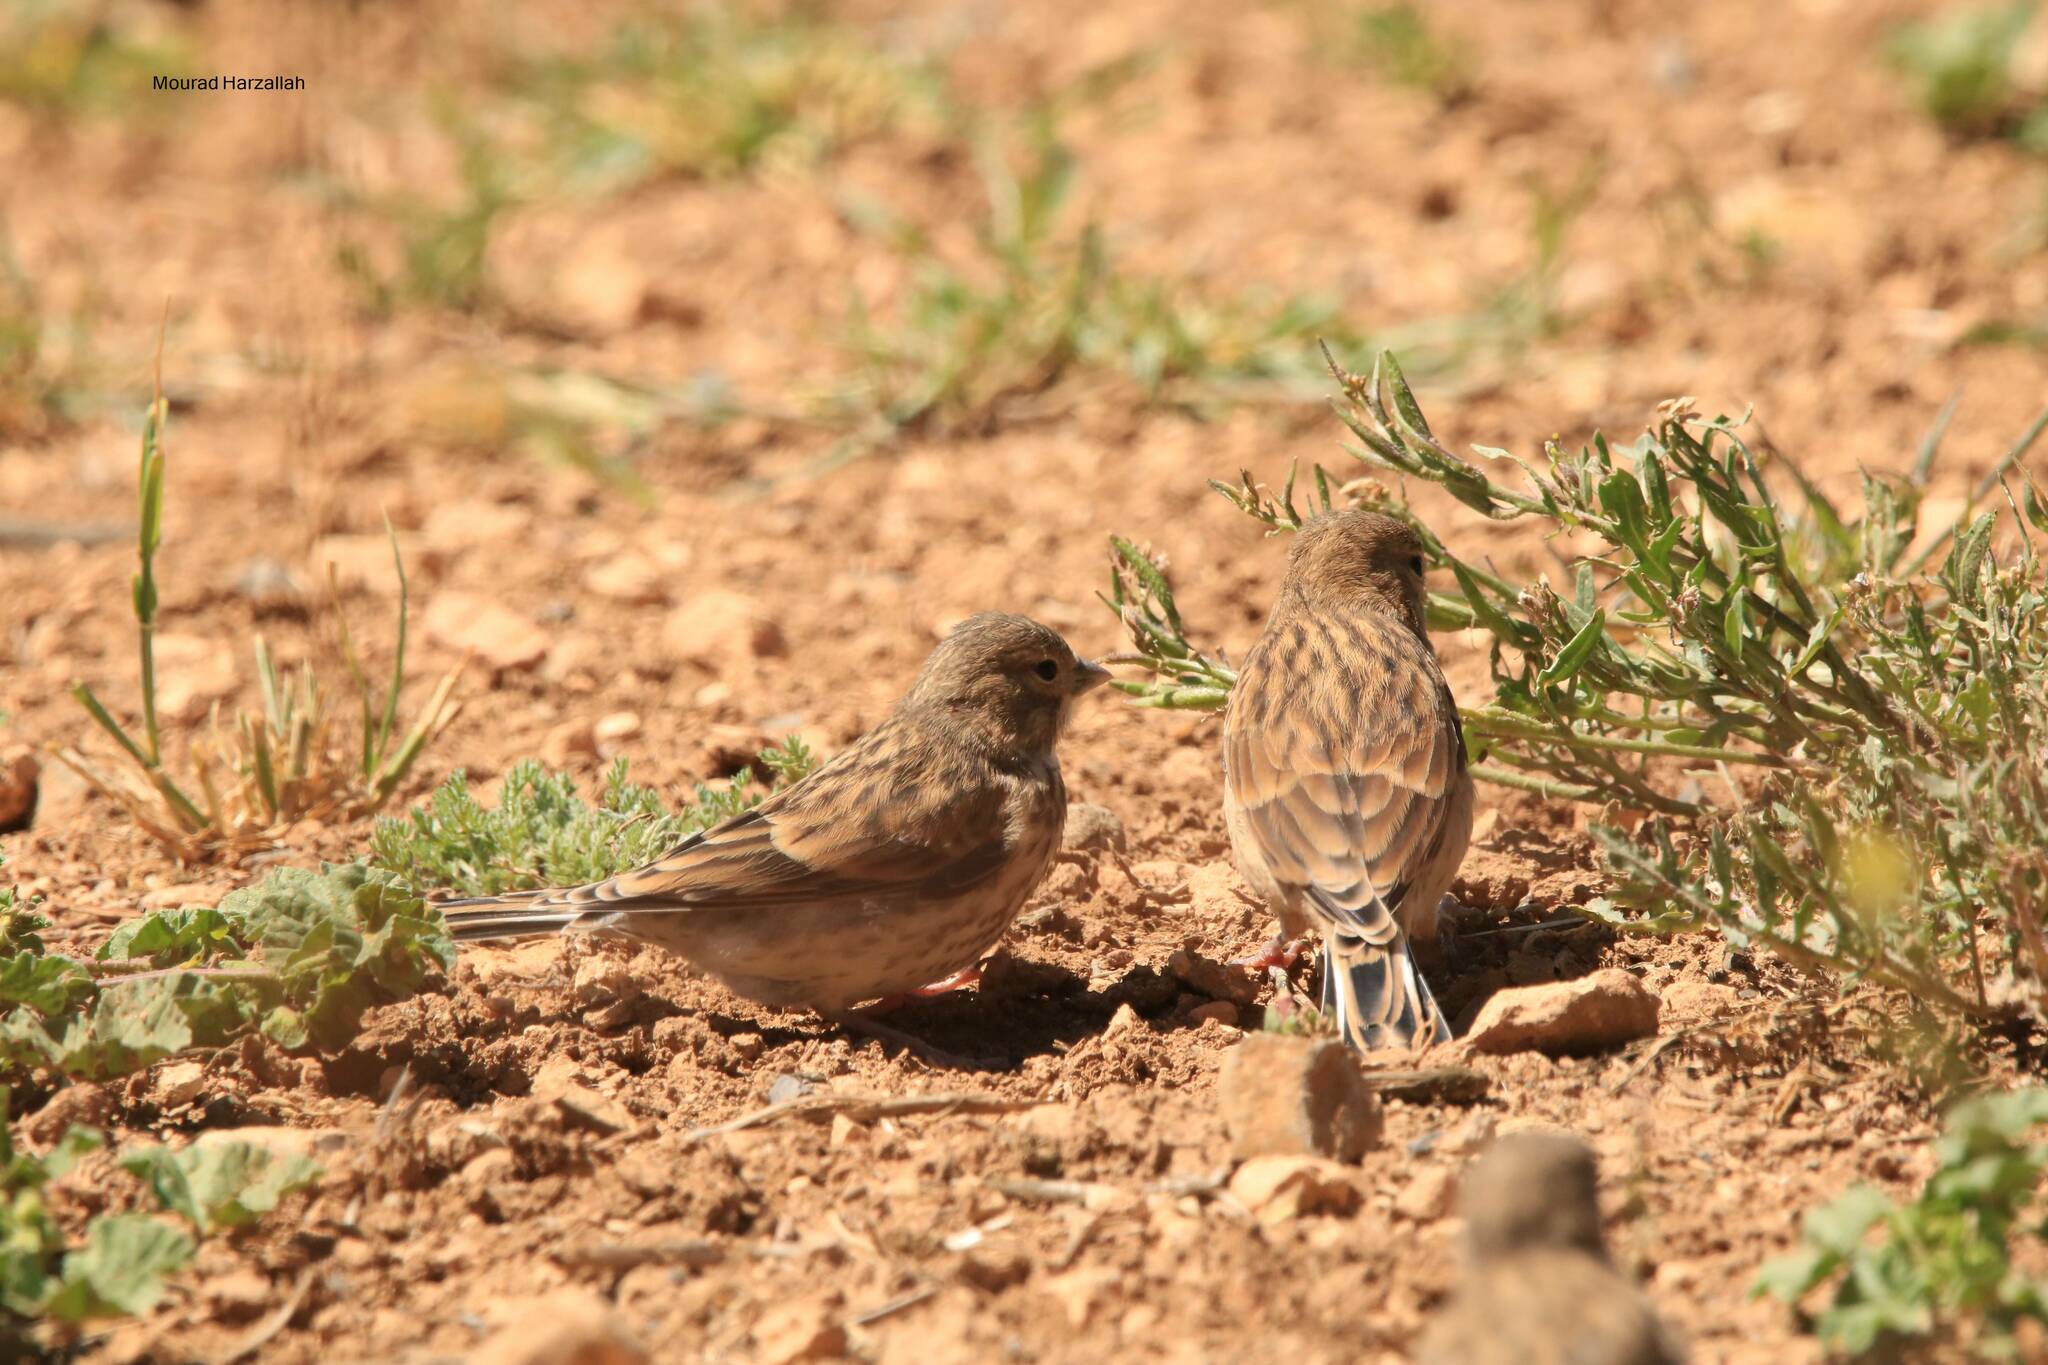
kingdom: Animalia
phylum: Chordata
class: Aves
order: Passeriformes
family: Fringillidae
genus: Linaria
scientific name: Linaria cannabina
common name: Common linnet
